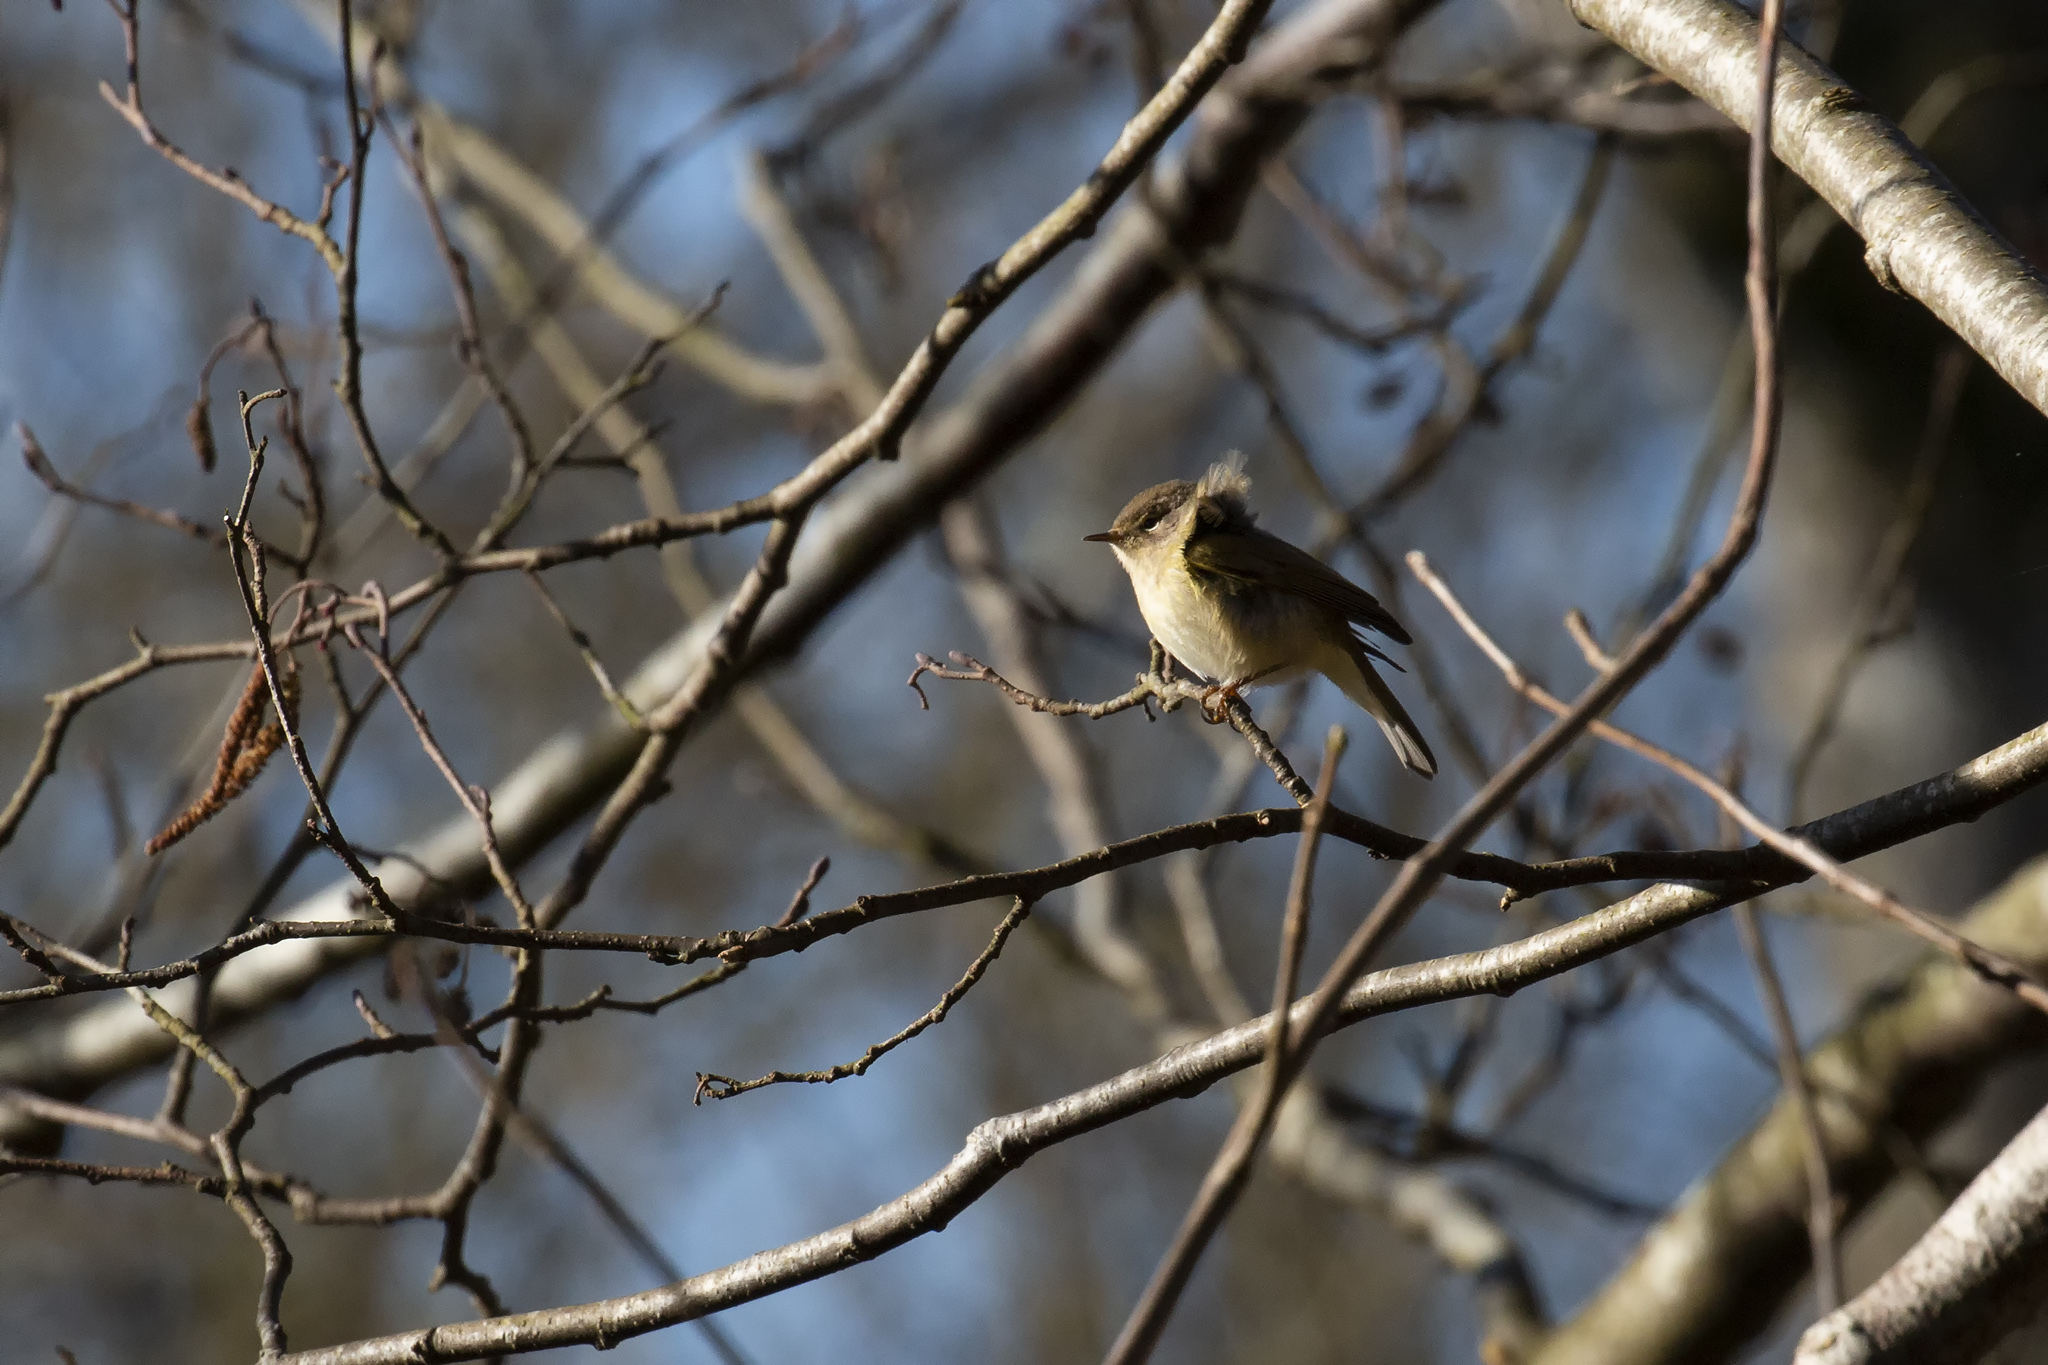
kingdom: Animalia
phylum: Chordata
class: Aves
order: Passeriformes
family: Phylloscopidae
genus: Phylloscopus
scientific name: Phylloscopus collybita
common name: Common chiffchaff
